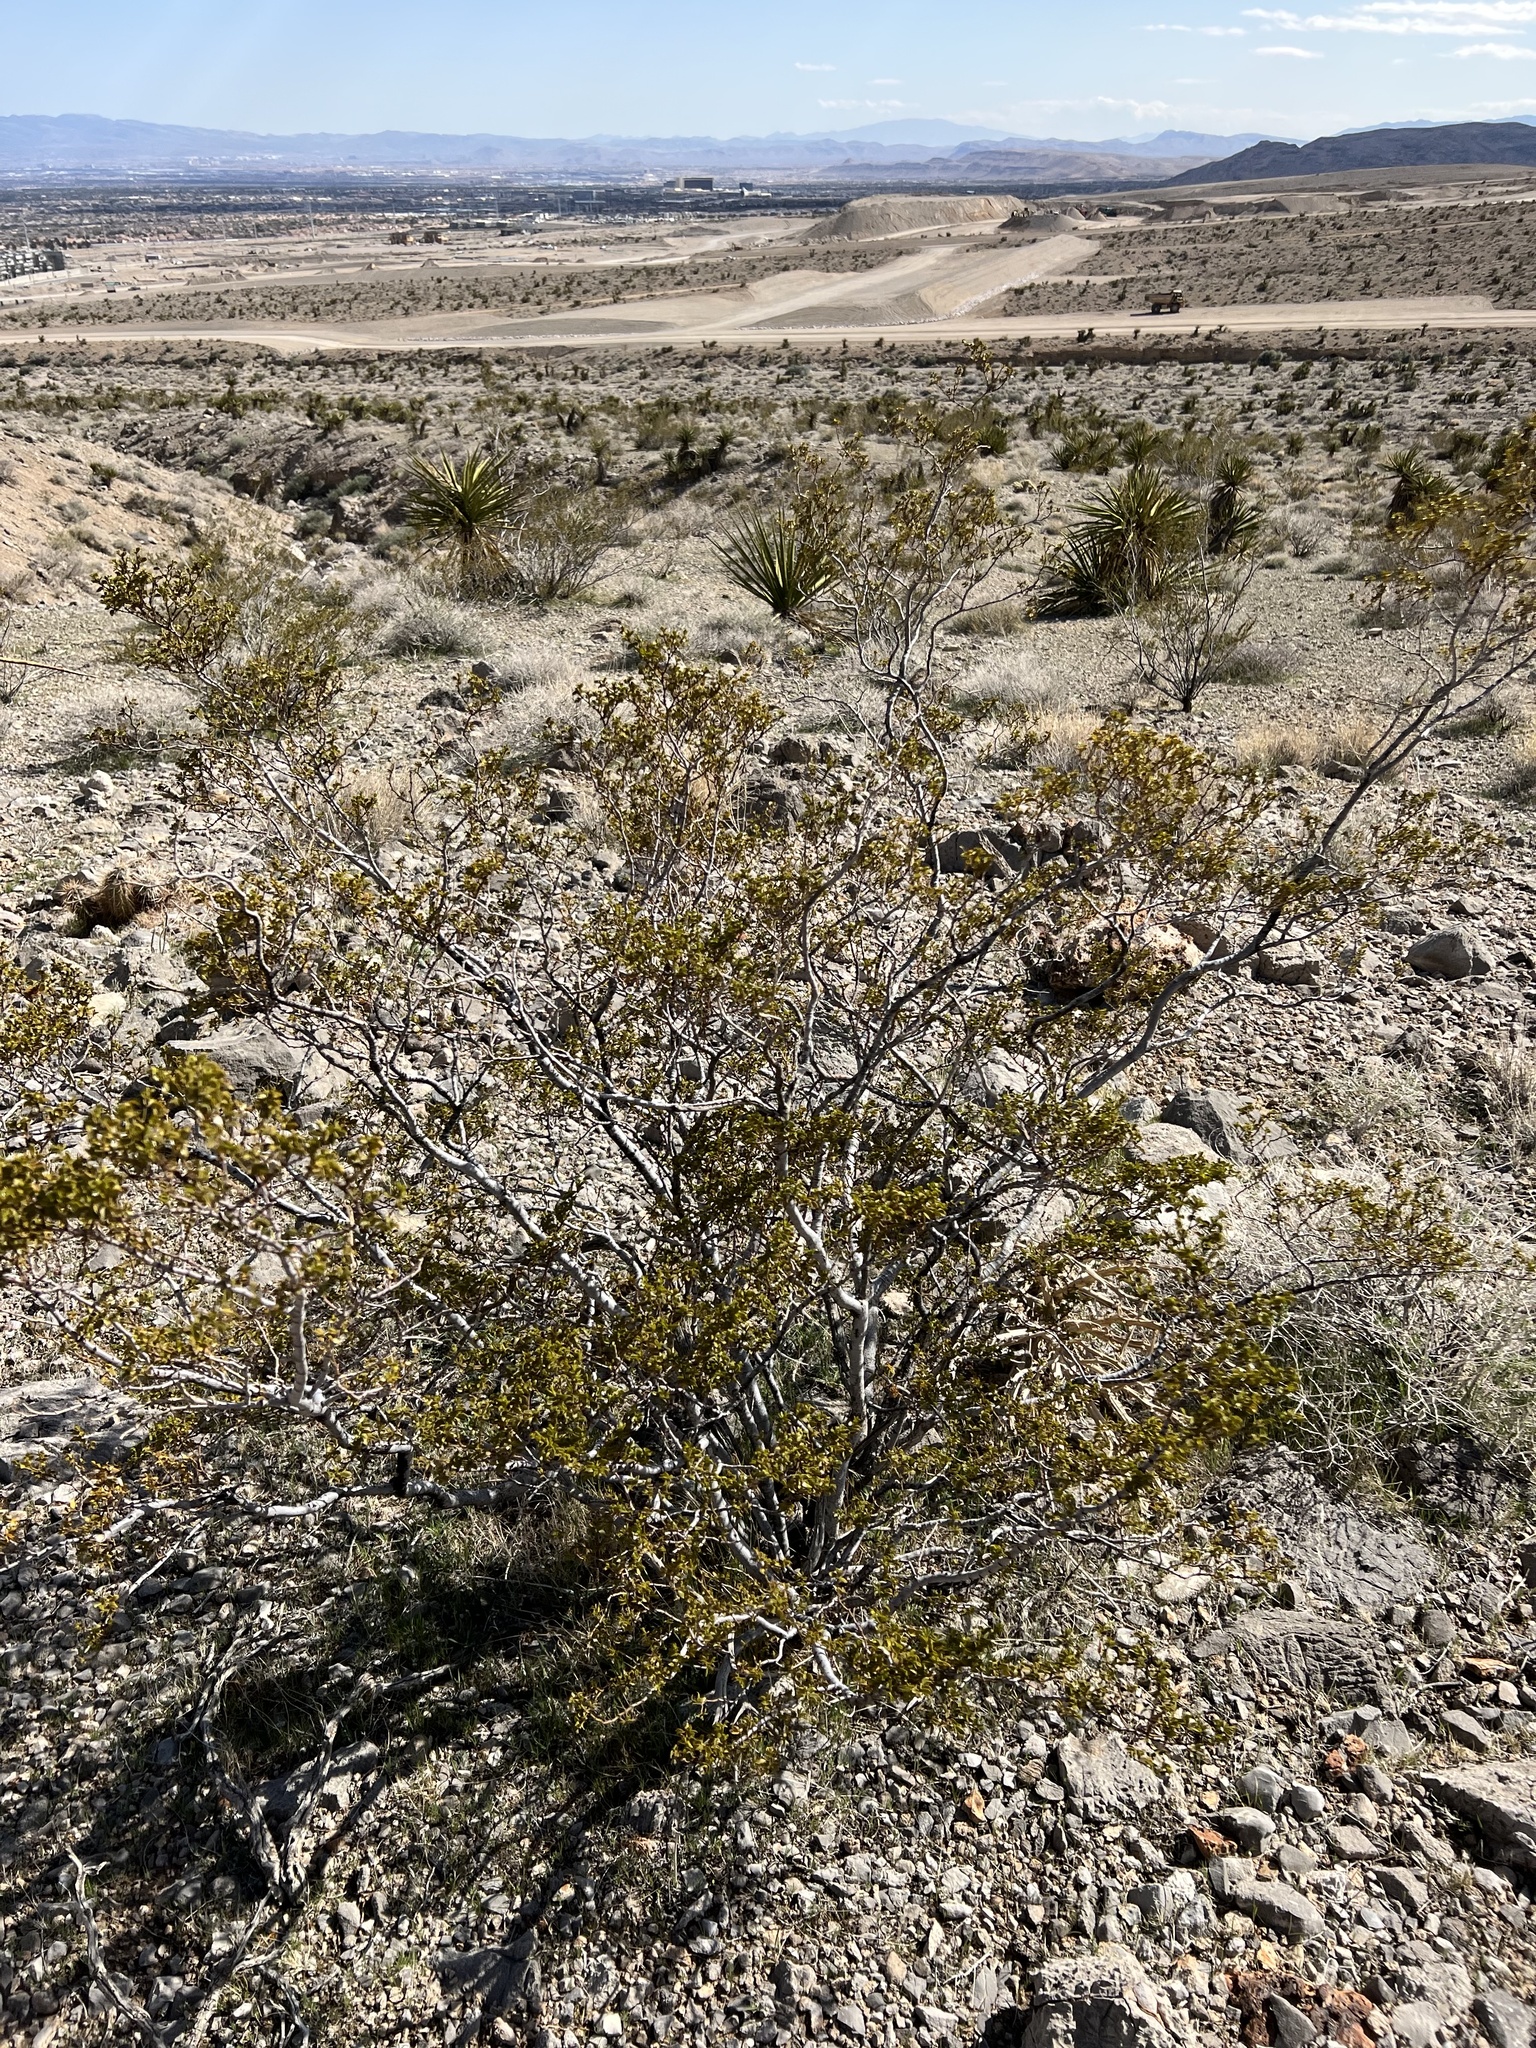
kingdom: Plantae
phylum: Tracheophyta
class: Magnoliopsida
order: Zygophyllales
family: Zygophyllaceae
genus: Larrea
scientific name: Larrea tridentata
